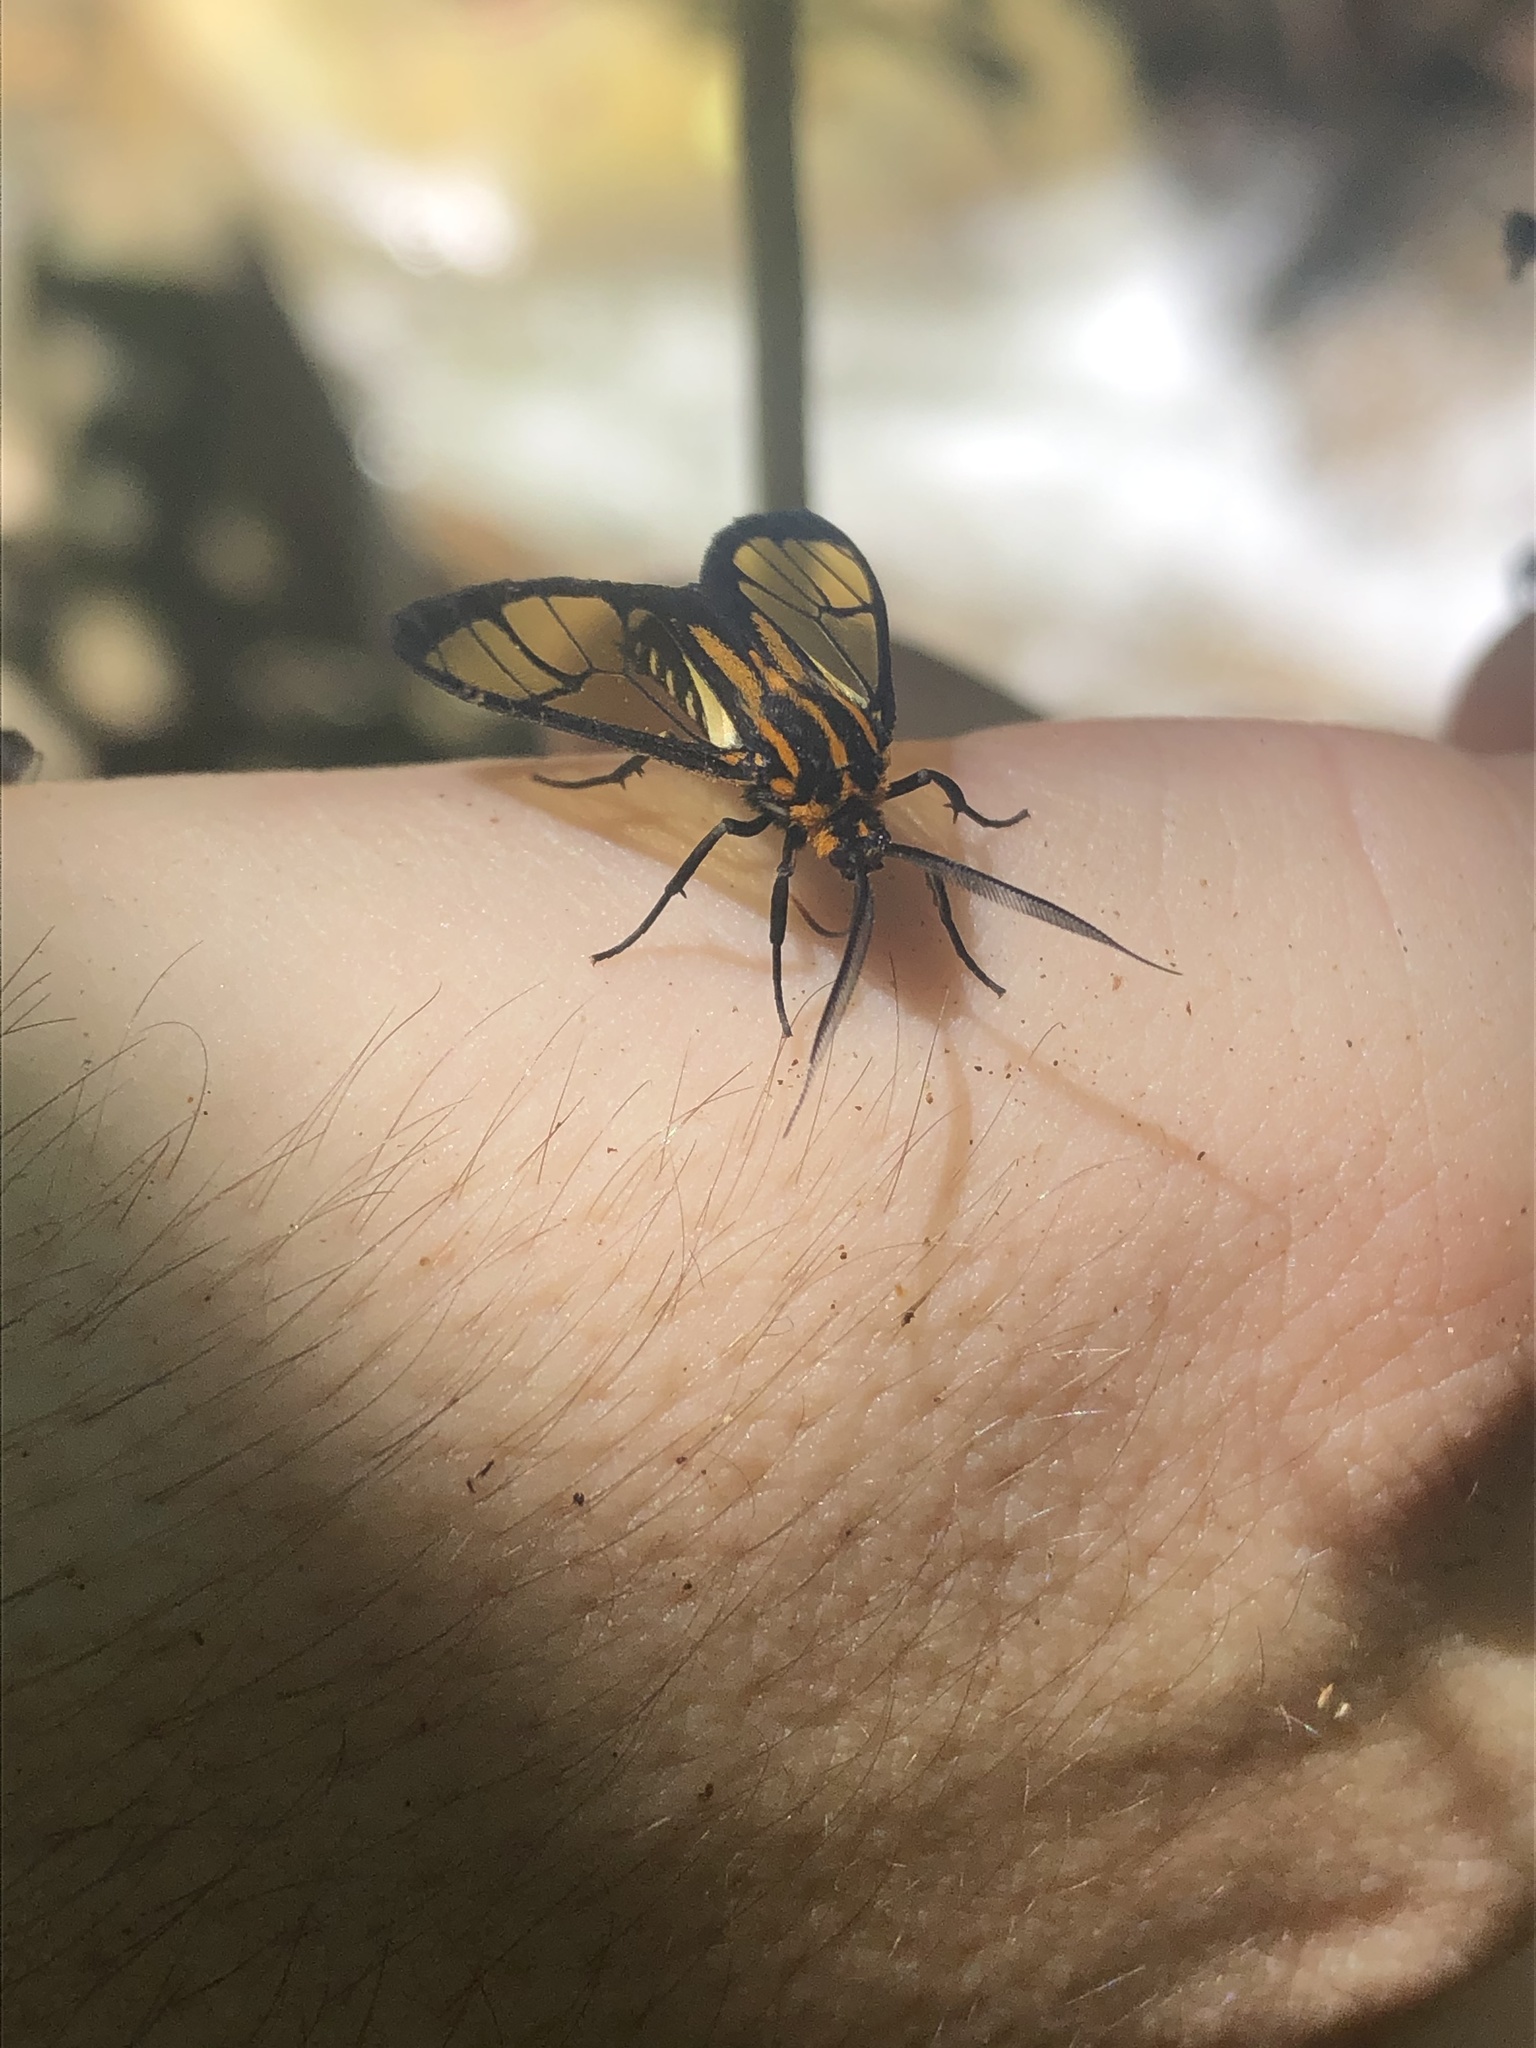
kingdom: Animalia
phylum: Arthropoda
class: Insecta
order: Lepidoptera
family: Erebidae
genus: Paraethria
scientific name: Paraethria flavosignata
